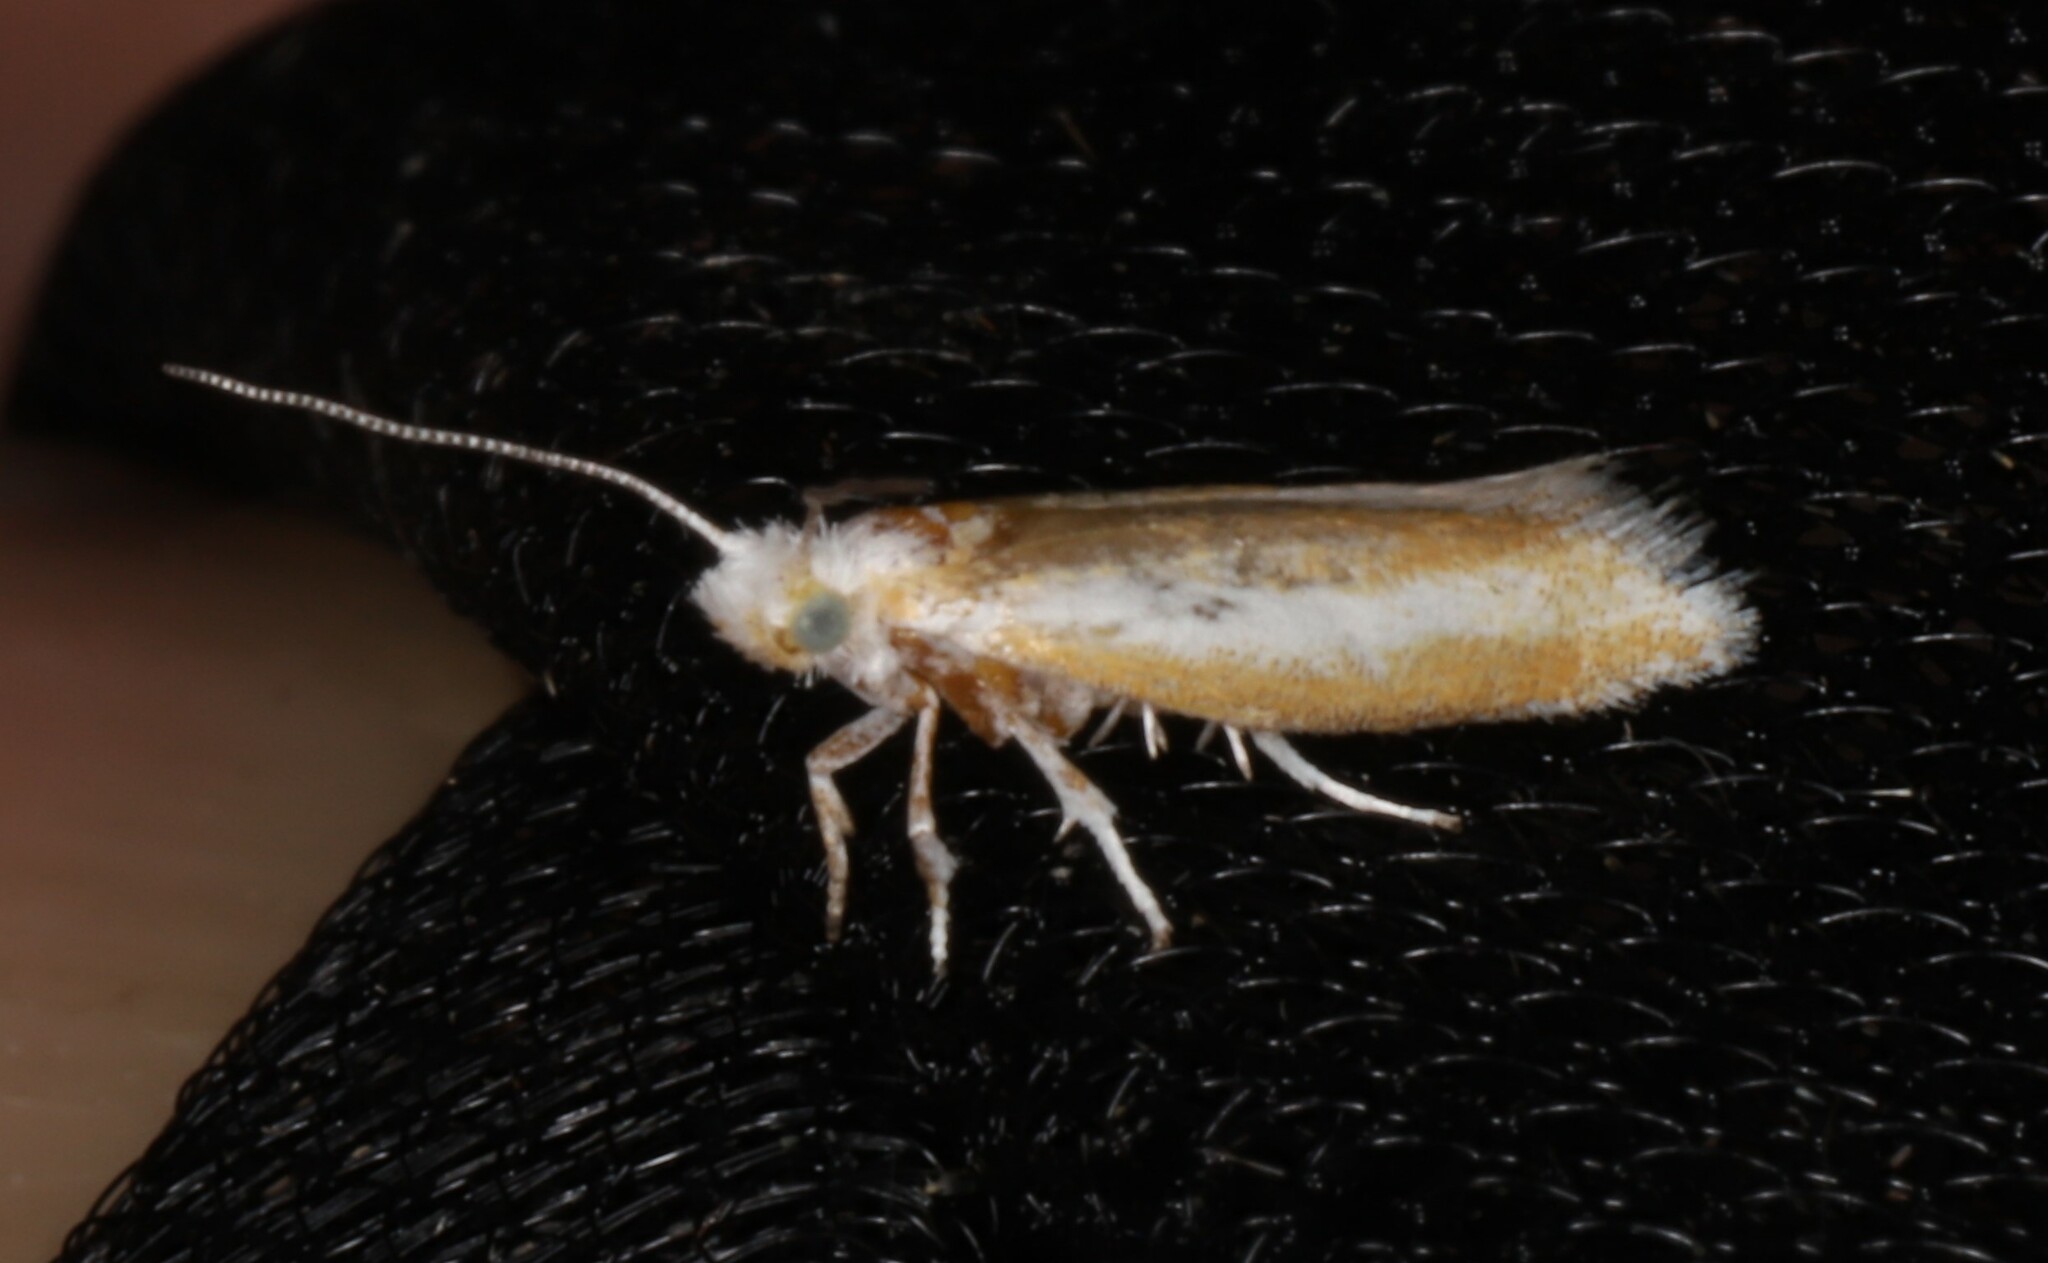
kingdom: Animalia
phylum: Arthropoda
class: Insecta
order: Lepidoptera
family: Yponomeutidae
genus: Zelleria
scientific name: Zelleria haimbachi
